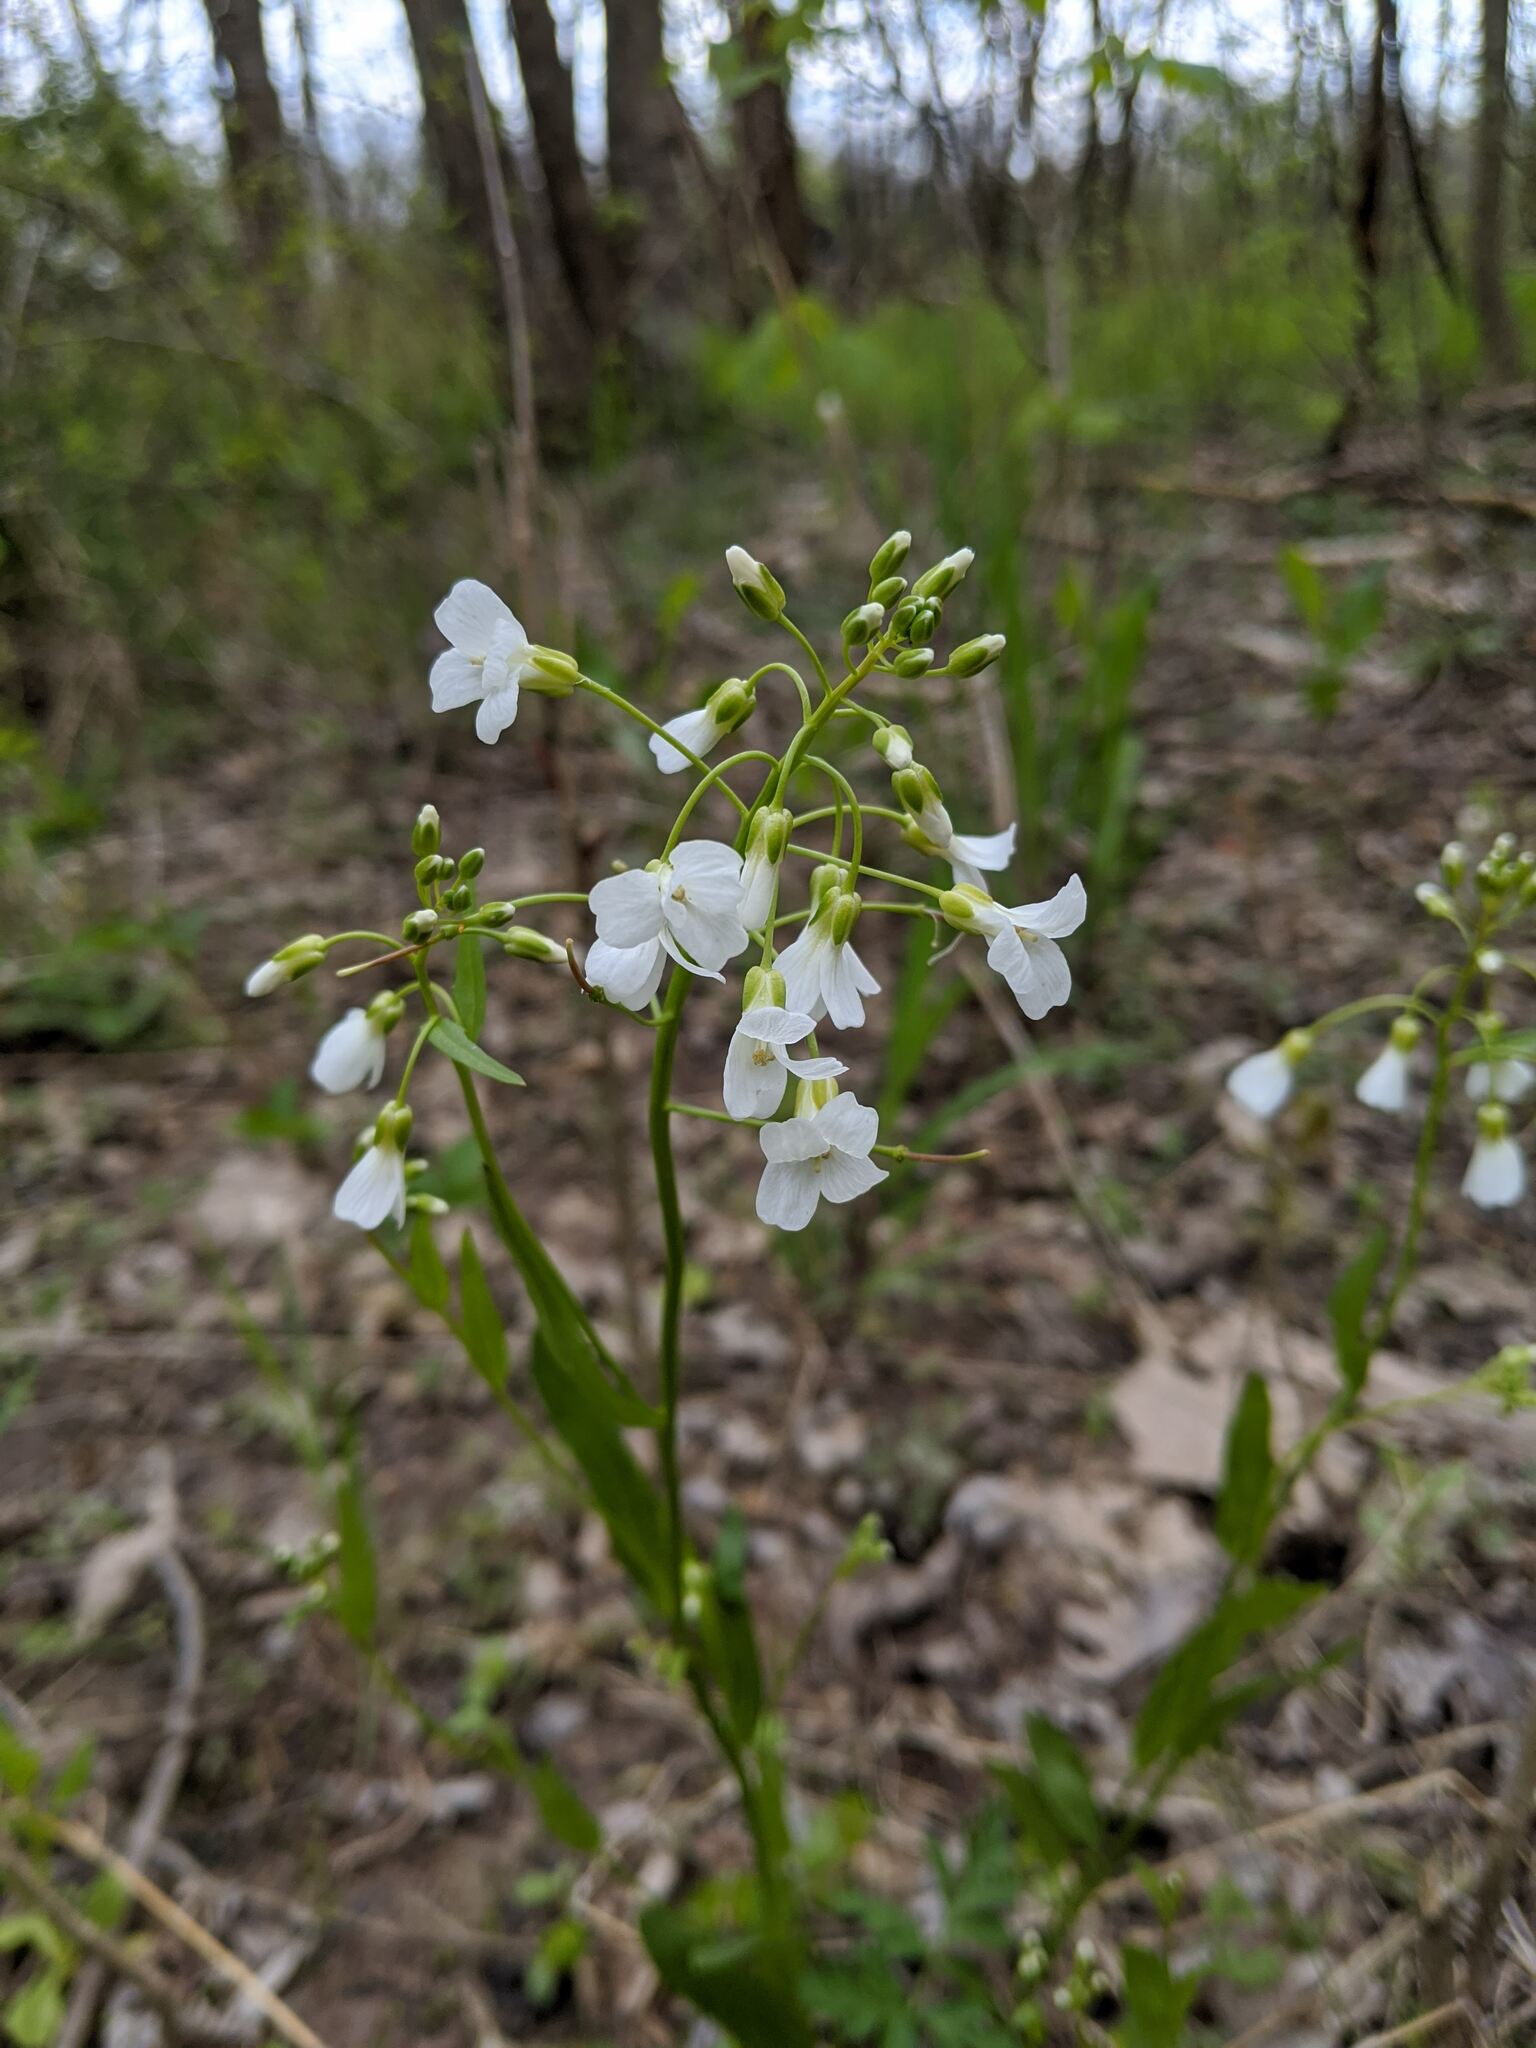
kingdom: Plantae
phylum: Tracheophyta
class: Magnoliopsida
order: Brassicales
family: Brassicaceae
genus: Cardamine
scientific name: Cardamine bulbosa
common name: Spring cress
